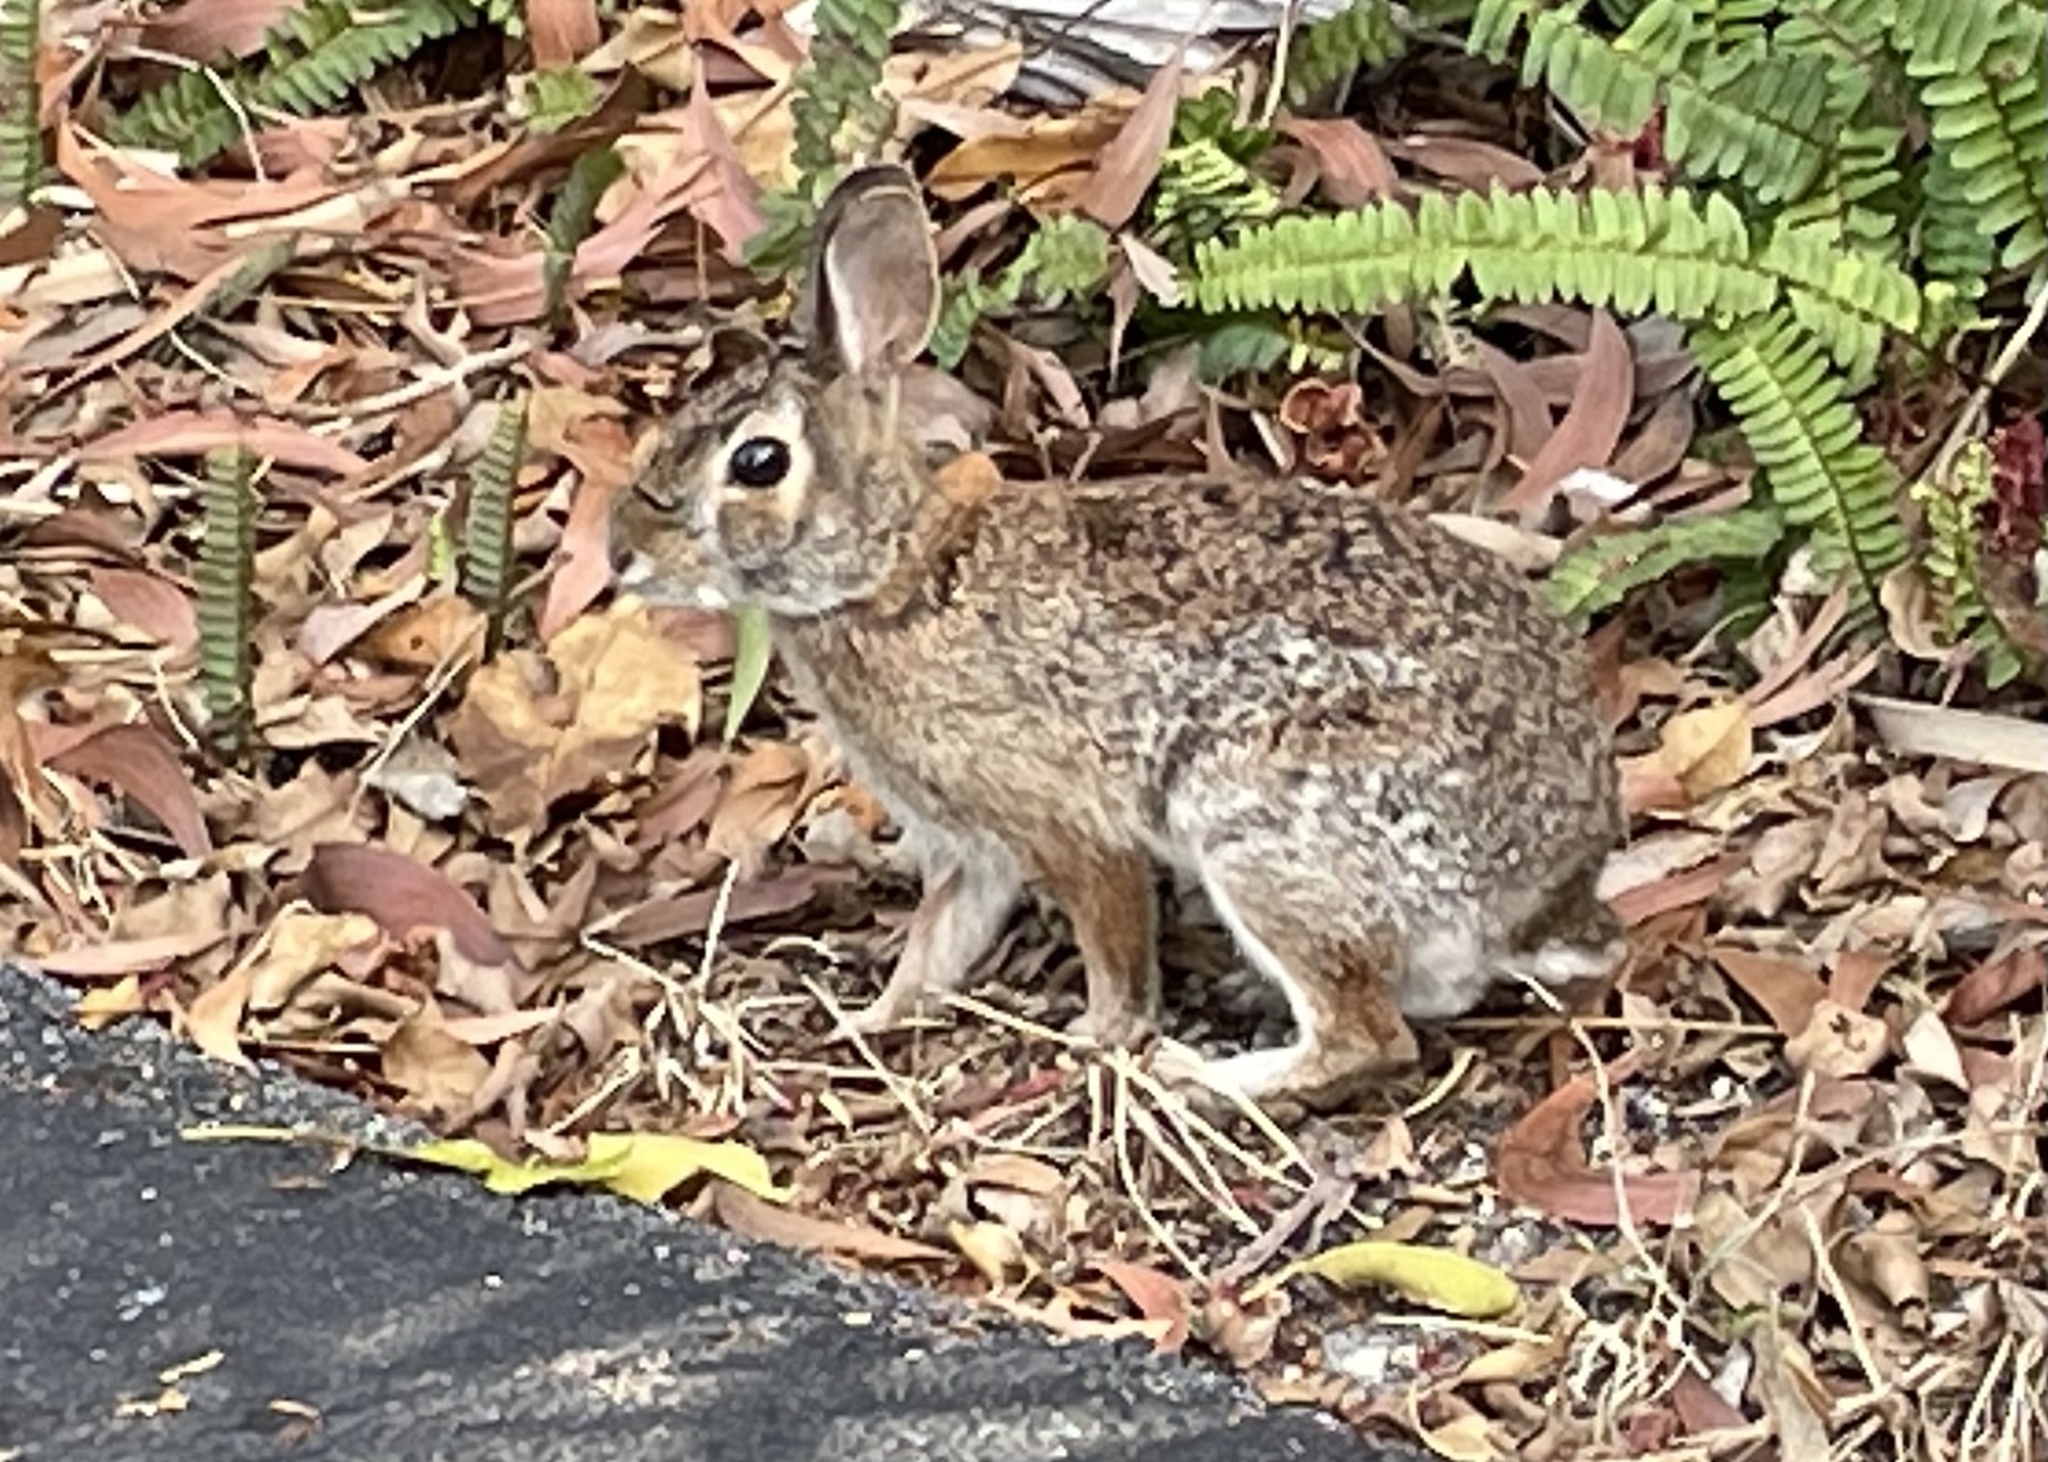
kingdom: Animalia
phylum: Chordata
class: Mammalia
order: Lagomorpha
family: Leporidae
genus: Sylvilagus
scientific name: Sylvilagus palustris
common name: Marsh rabbit
